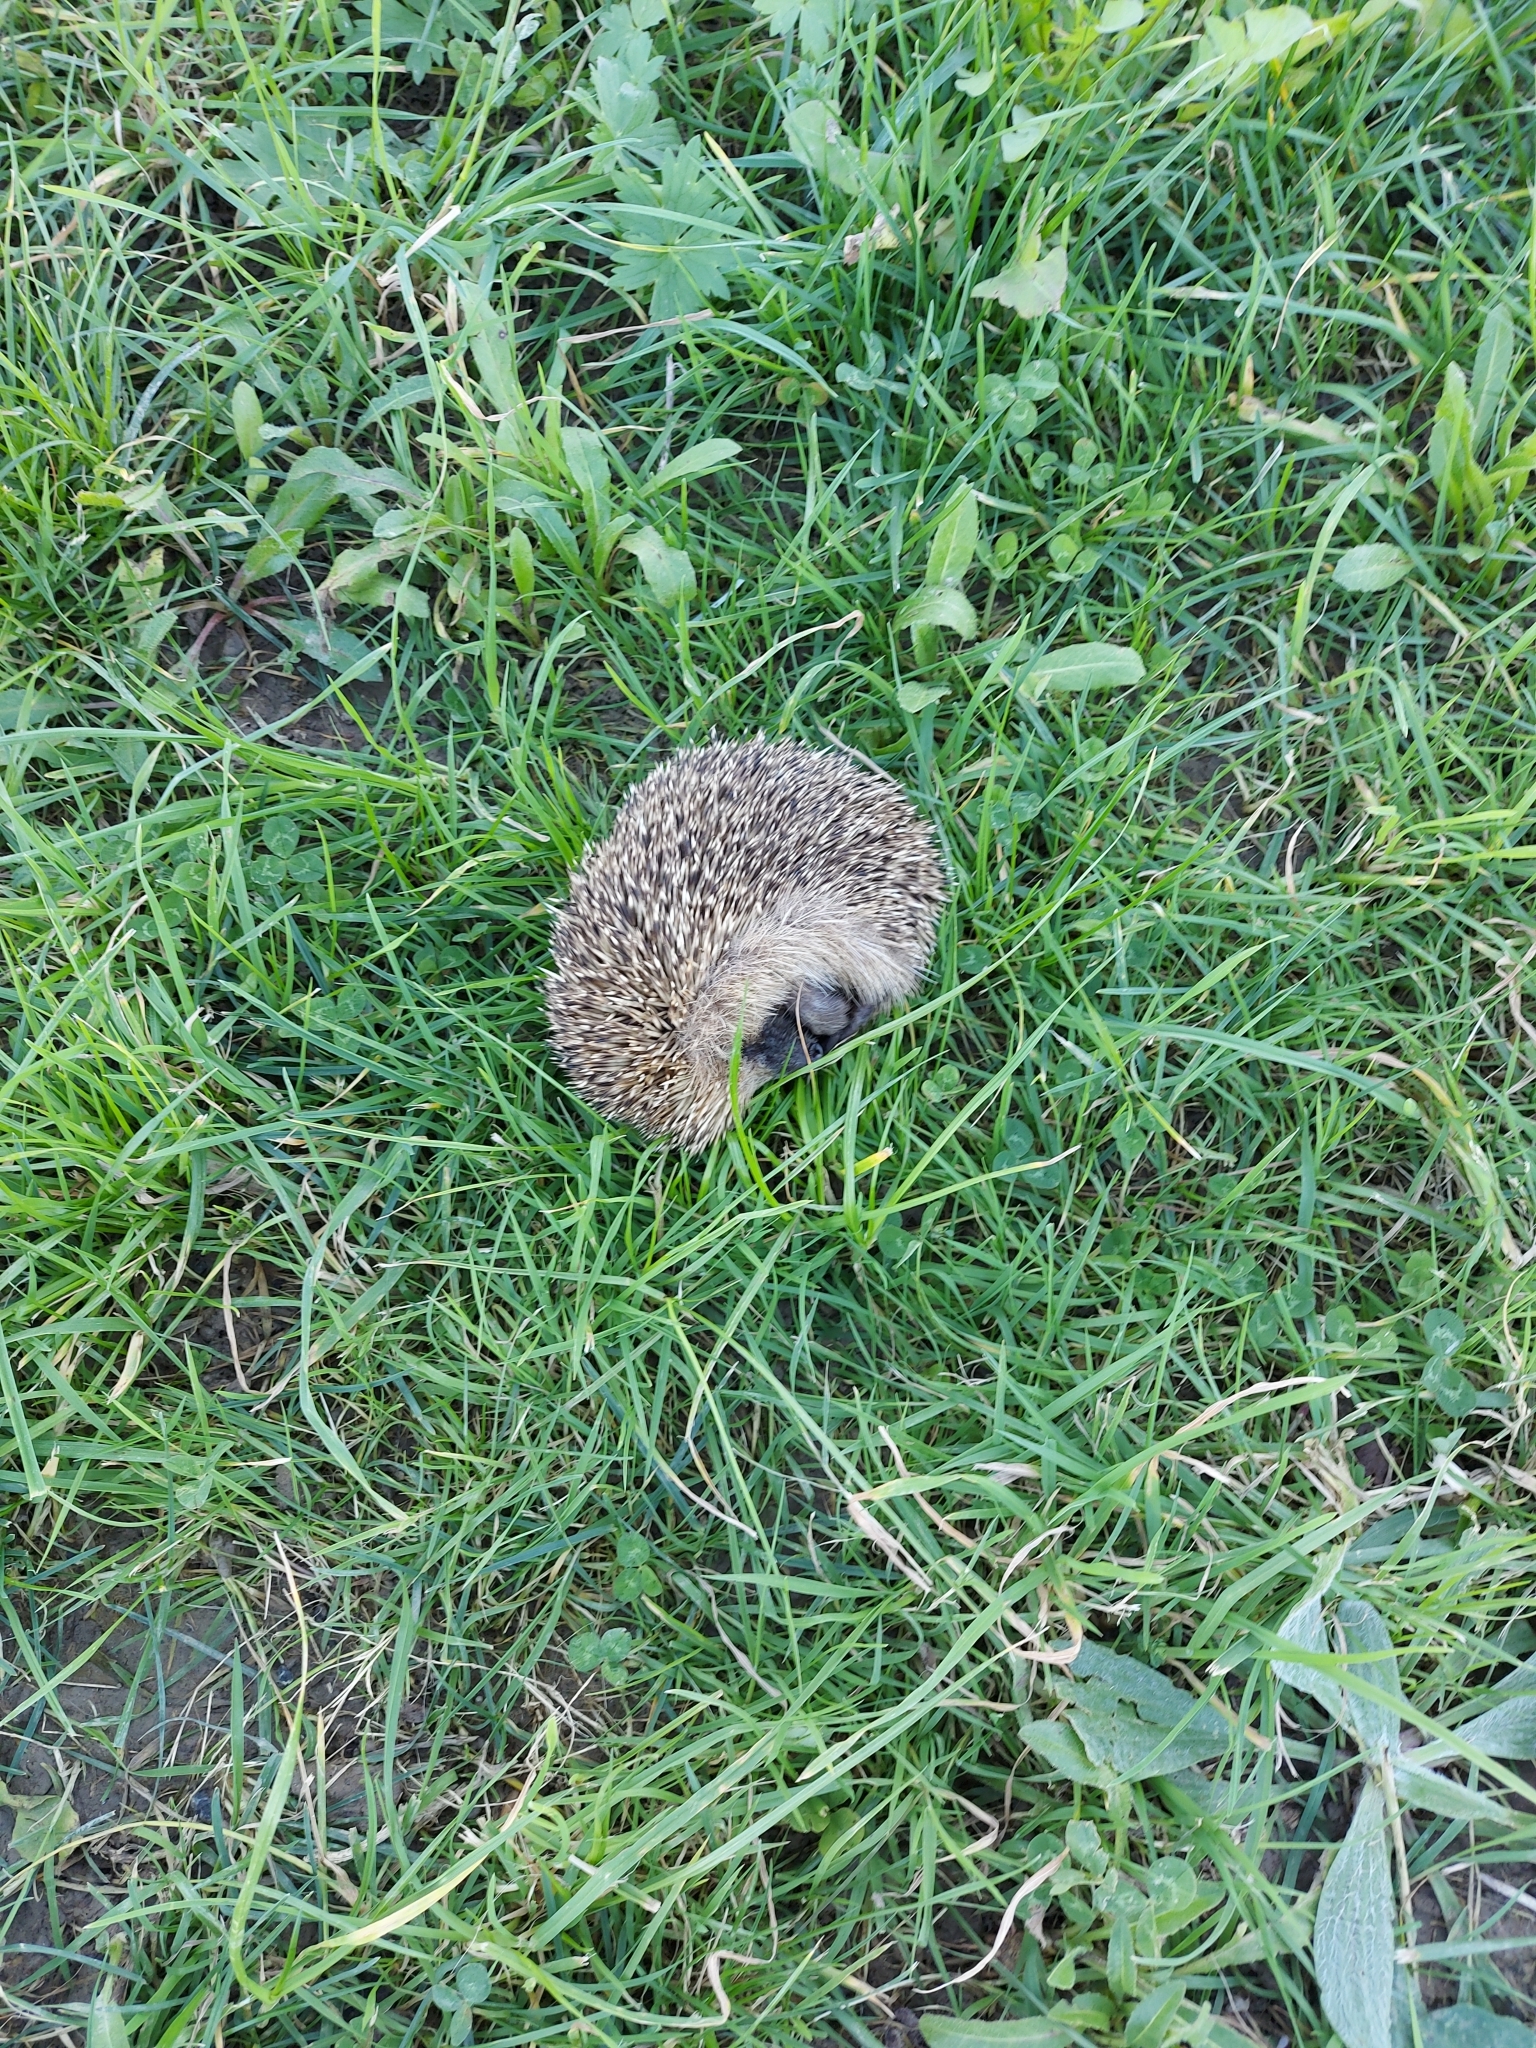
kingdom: Animalia
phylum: Chordata
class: Mammalia
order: Erinaceomorpha
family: Erinaceidae
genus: Erinaceus
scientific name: Erinaceus europaeus
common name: West european hedgehog
